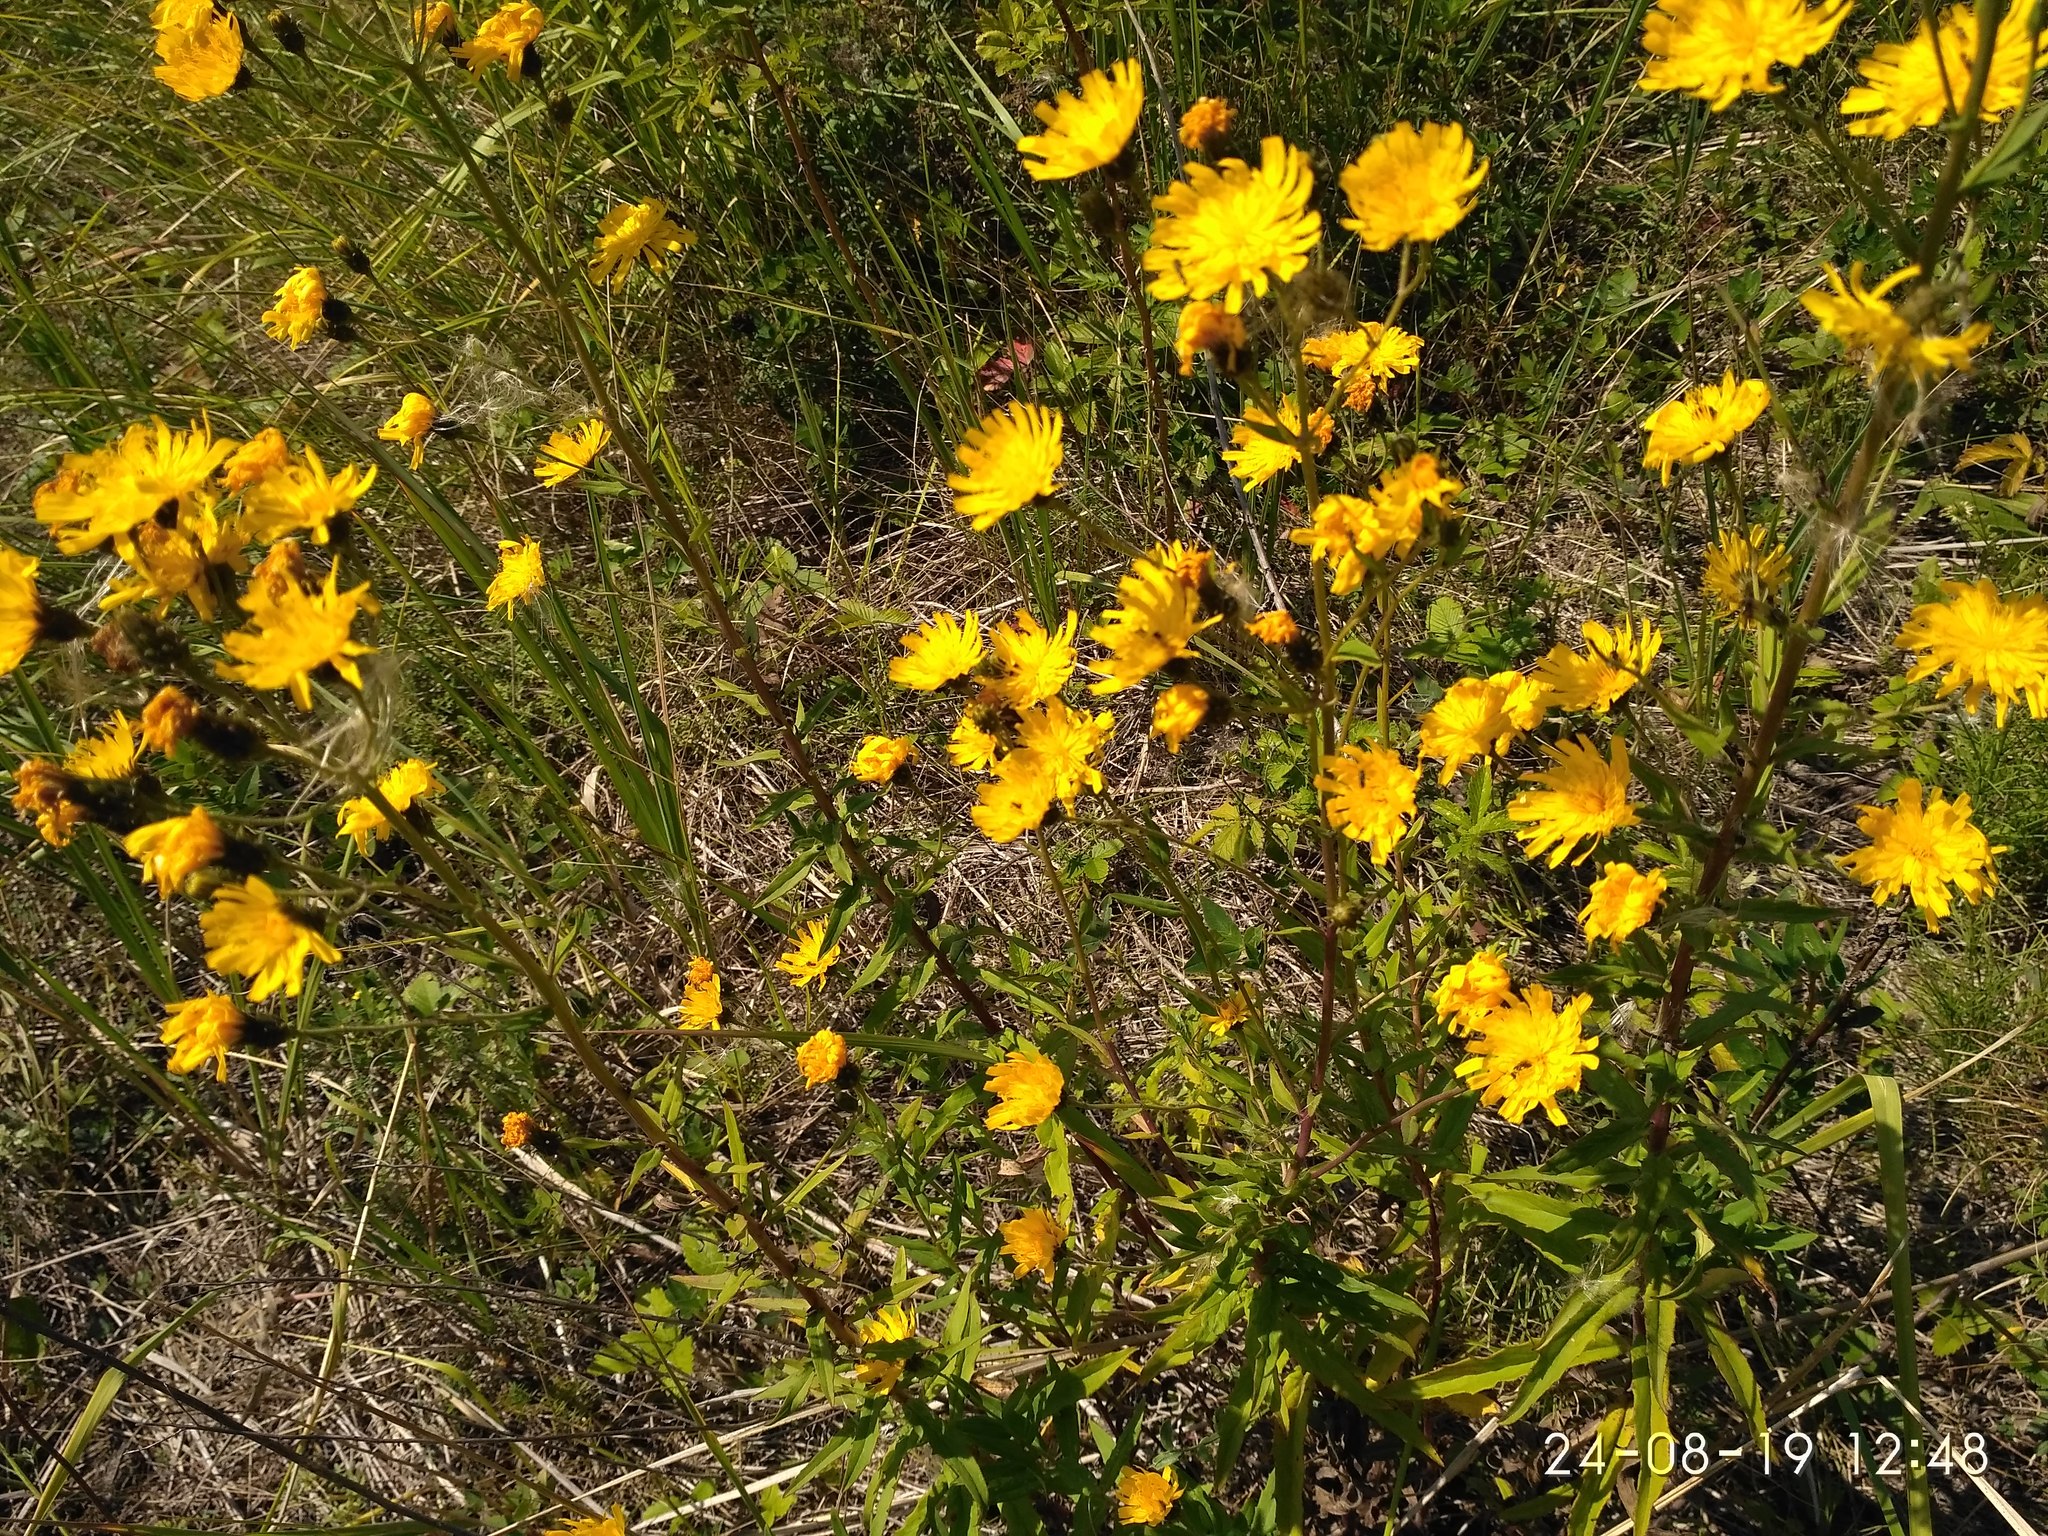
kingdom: Plantae
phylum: Tracheophyta
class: Magnoliopsida
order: Asterales
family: Asteraceae
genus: Hieracium
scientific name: Hieracium umbellatum
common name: Northern hawkweed
